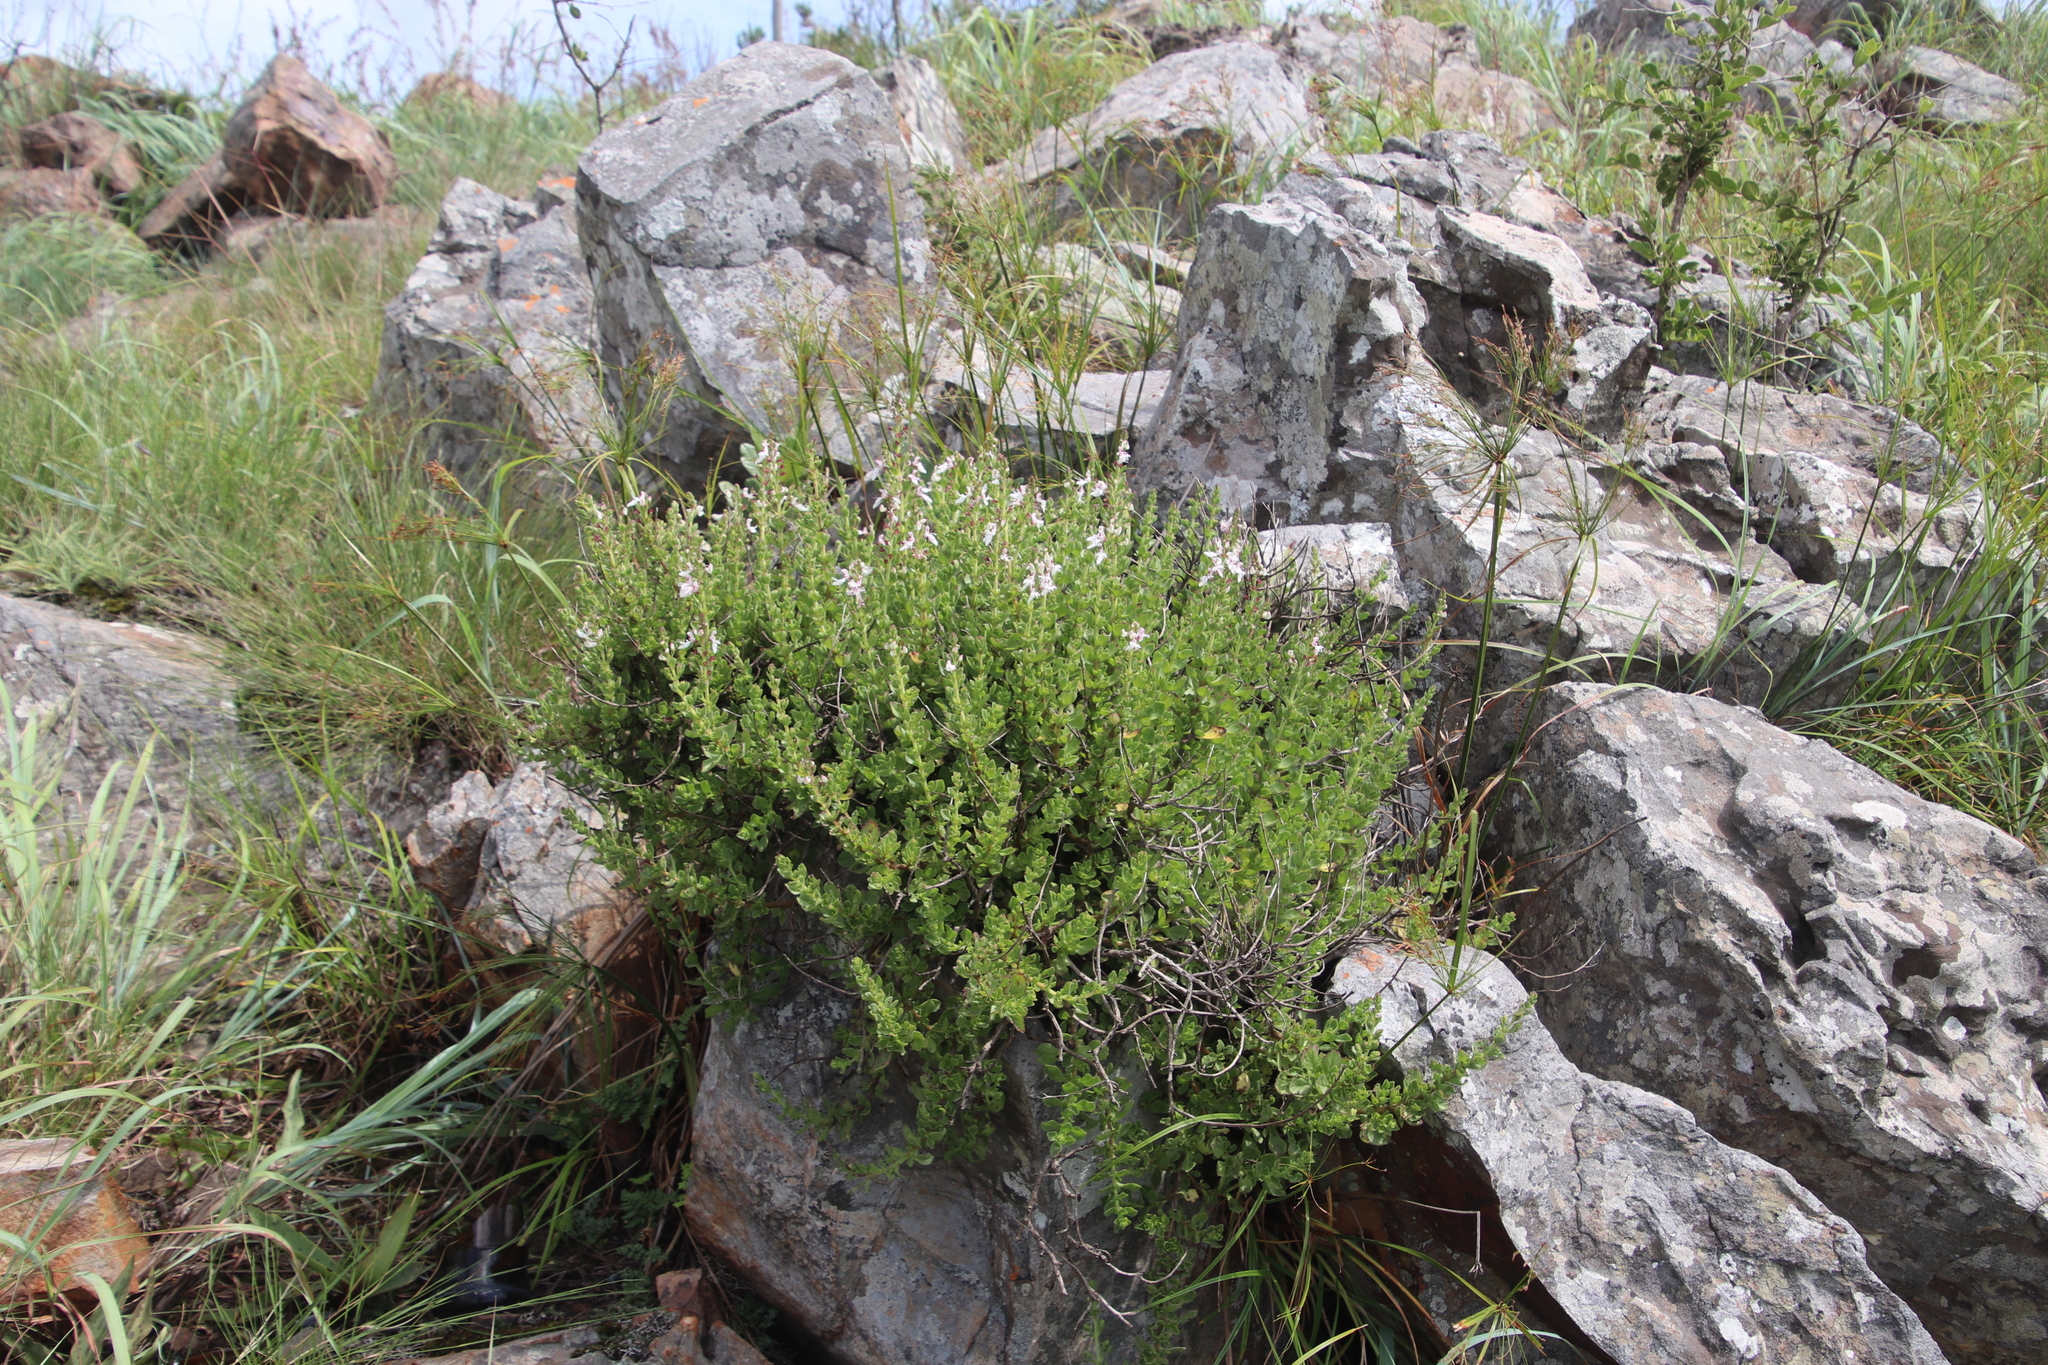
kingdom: Plantae
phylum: Tracheophyta
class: Magnoliopsida
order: Lamiales
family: Lamiaceae
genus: Thorncroftia
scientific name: Thorncroftia thorncroftii
